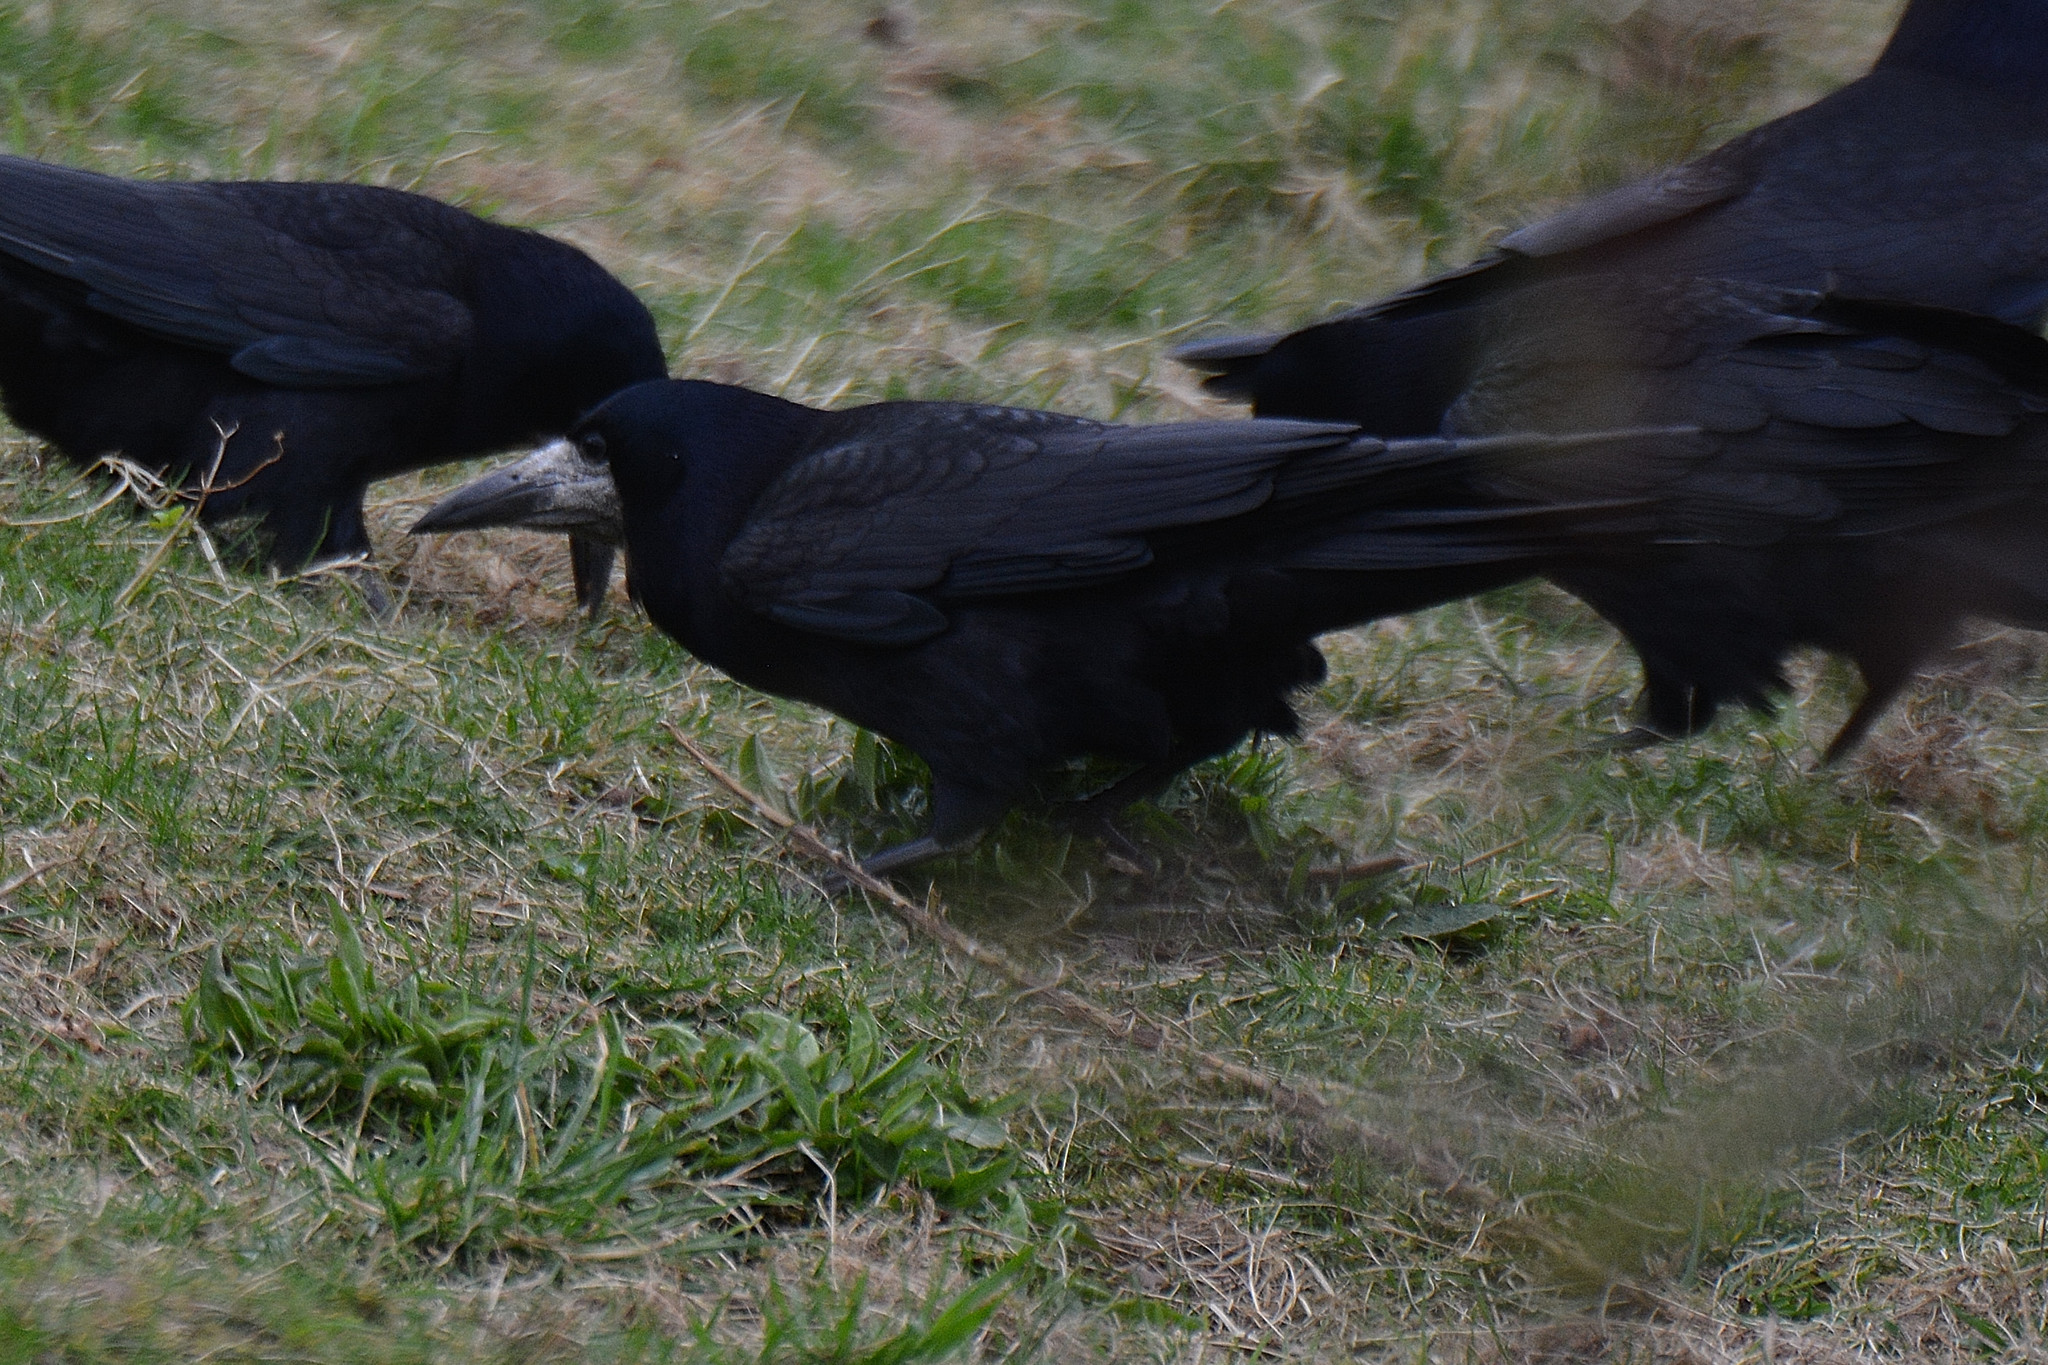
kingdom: Animalia
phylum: Chordata
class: Aves
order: Passeriformes
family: Corvidae
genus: Corvus
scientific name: Corvus frugilegus
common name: Rook
